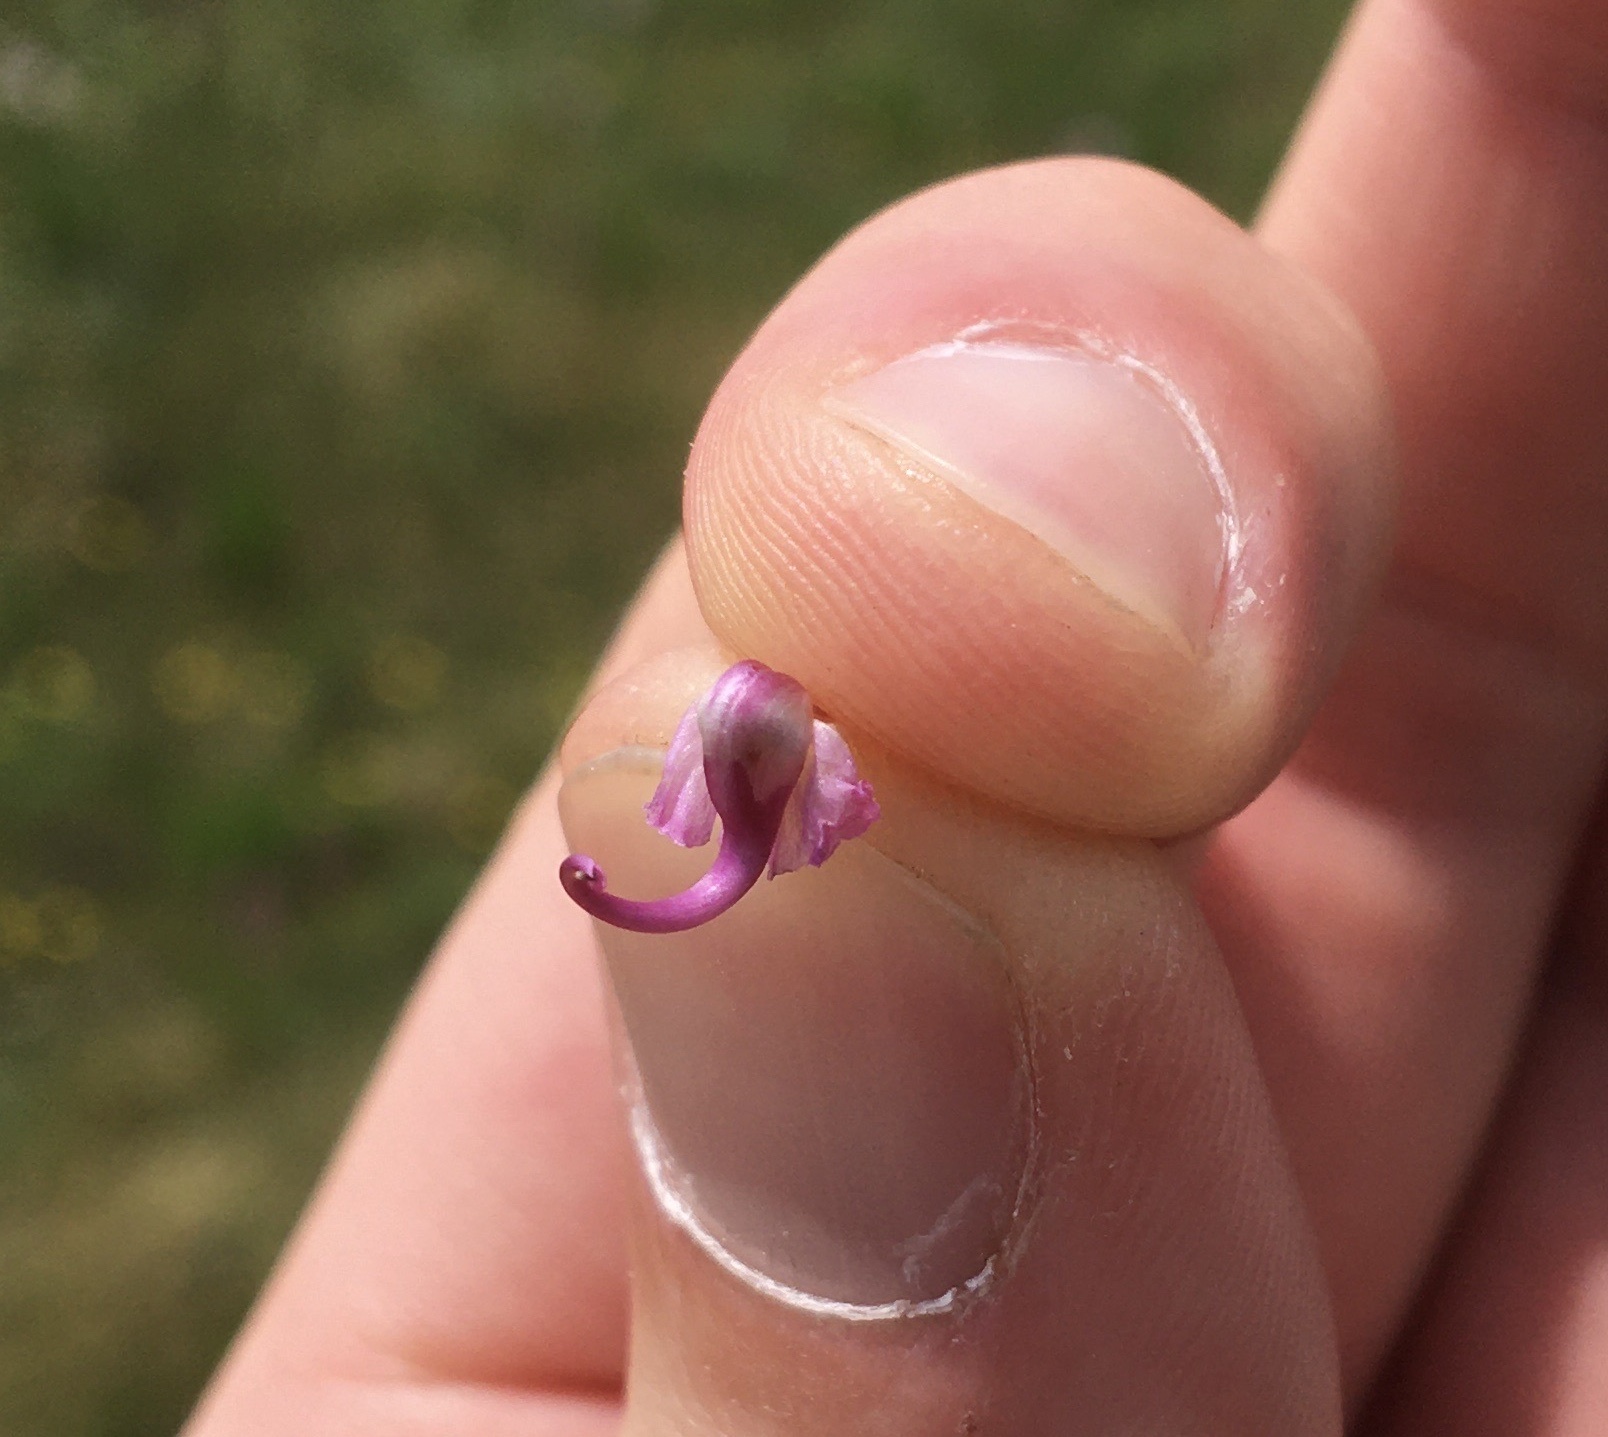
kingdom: Plantae
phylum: Tracheophyta
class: Magnoliopsida
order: Lamiales
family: Orobanchaceae
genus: Pedicularis
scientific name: Pedicularis groenlandica
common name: Elephant's-head
